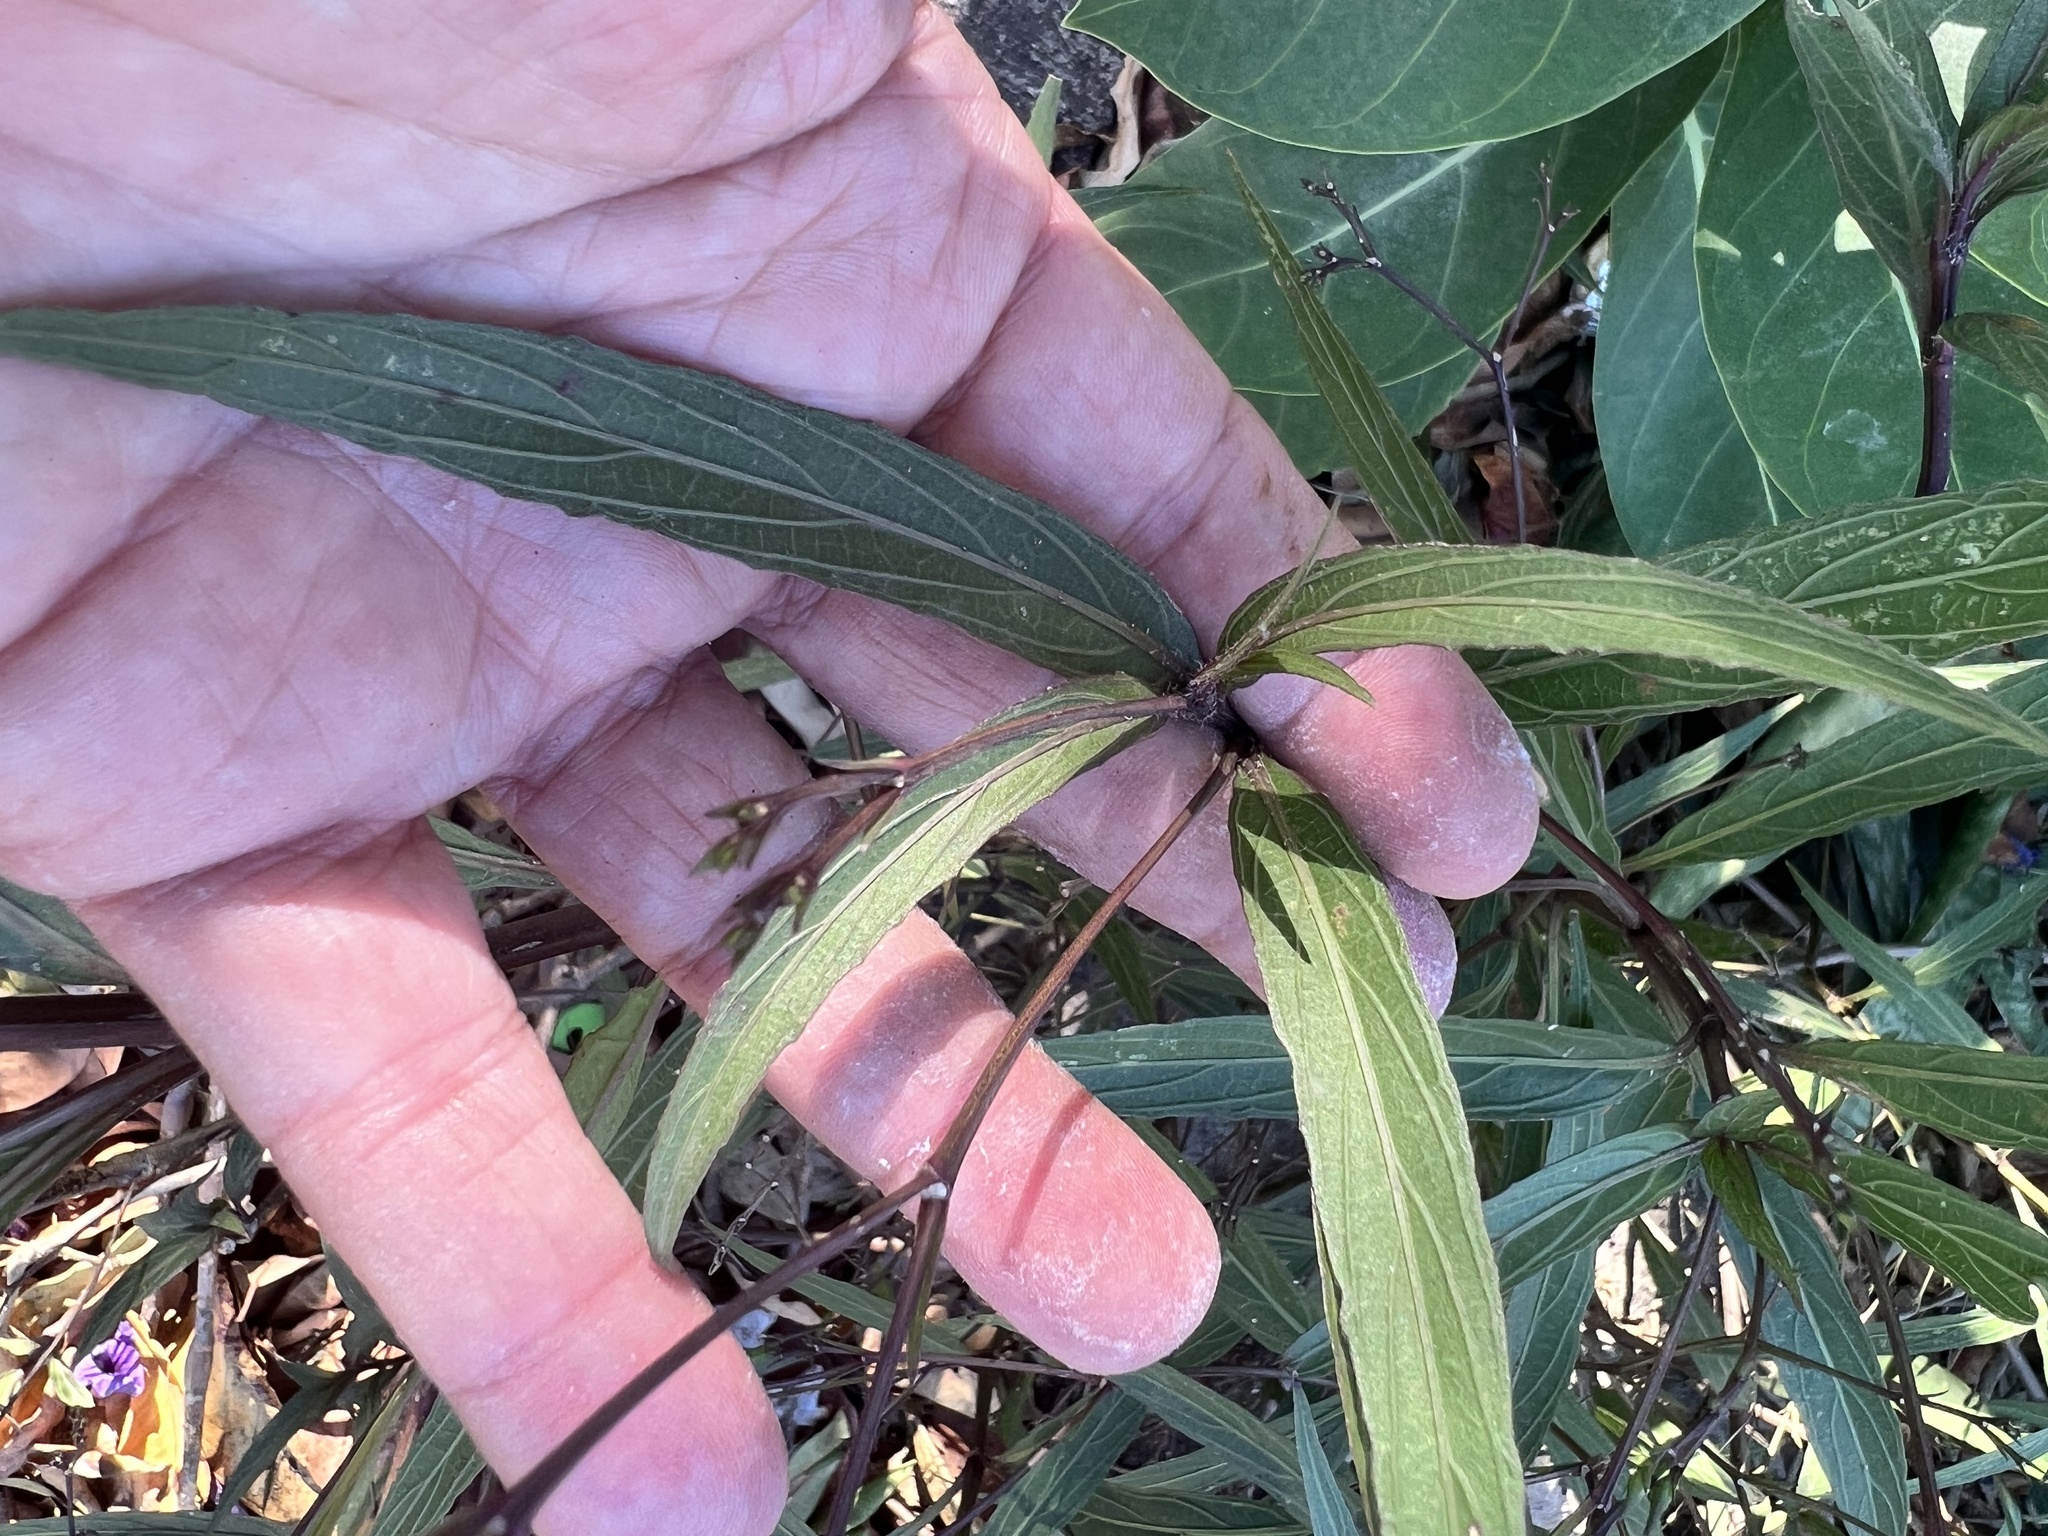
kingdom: Plantae
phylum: Tracheophyta
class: Magnoliopsida
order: Lamiales
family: Acanthaceae
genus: Ruellia
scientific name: Ruellia simplex
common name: Softseed wild petunia
